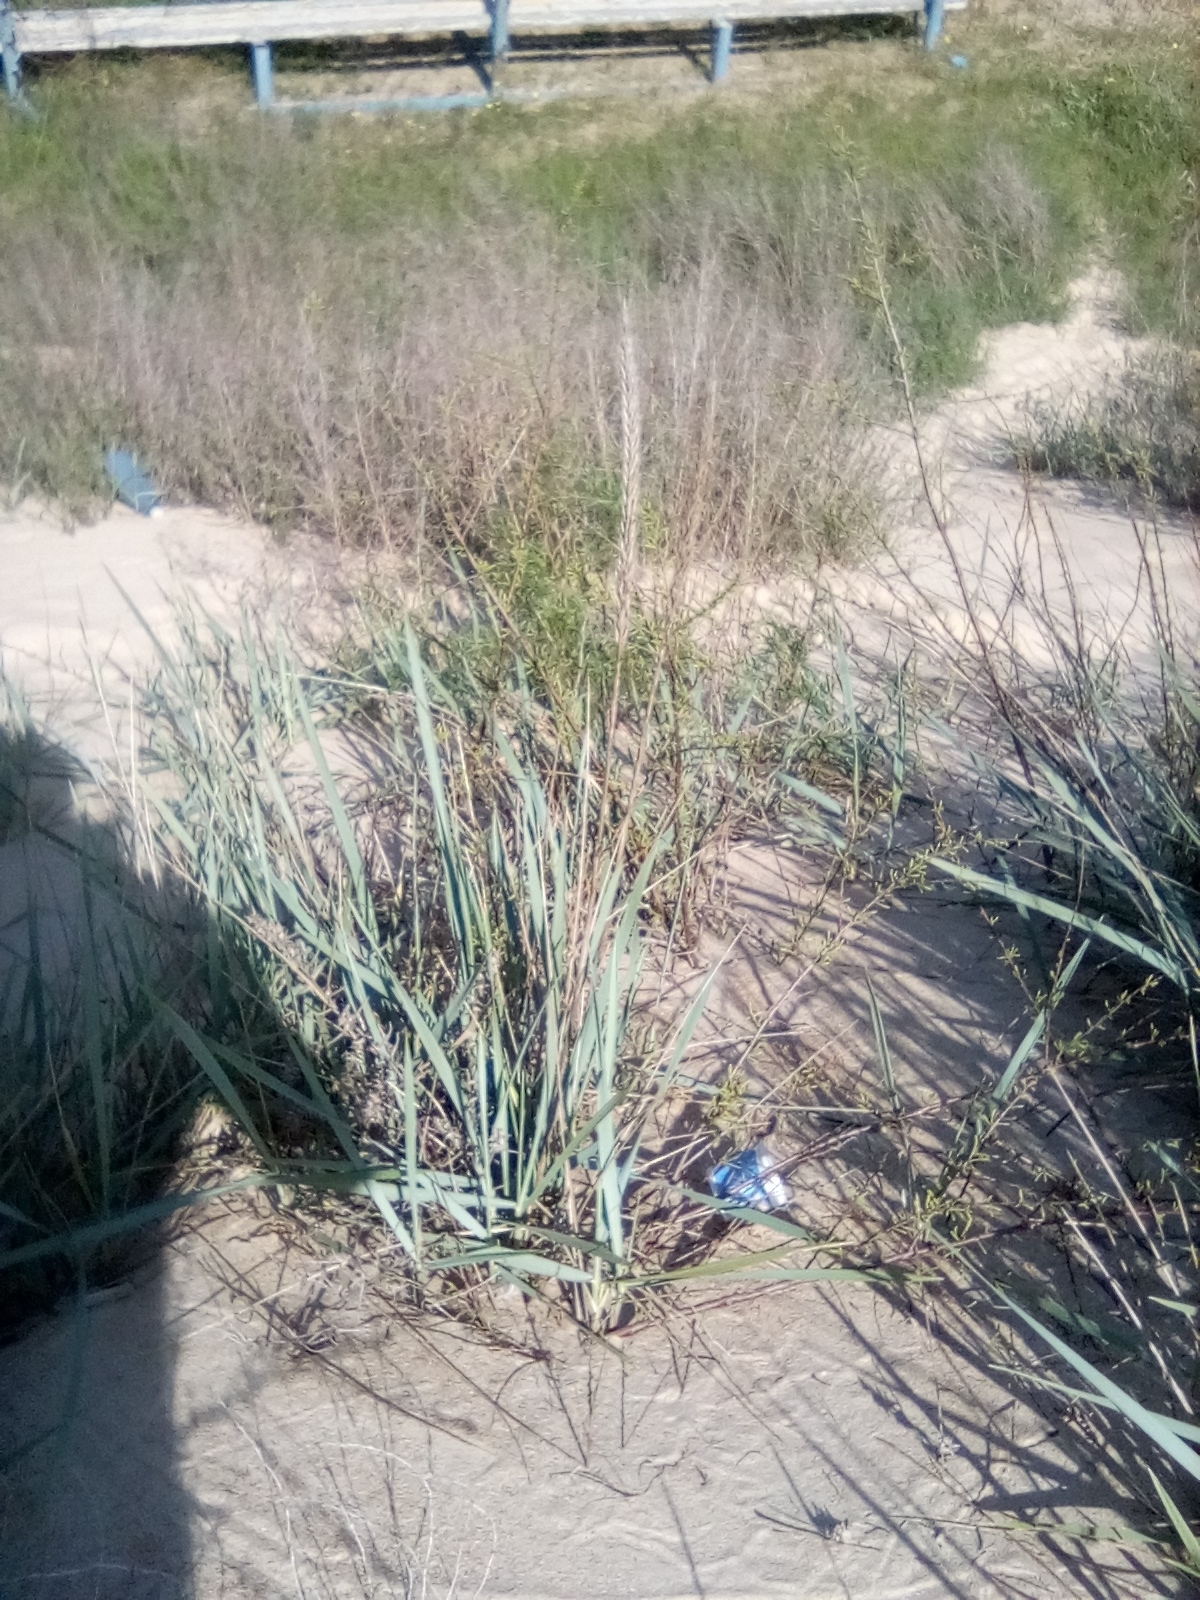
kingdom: Plantae
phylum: Tracheophyta
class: Liliopsida
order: Poales
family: Poaceae
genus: Leymus
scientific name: Leymus racemosus
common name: Mammoth wildrye
